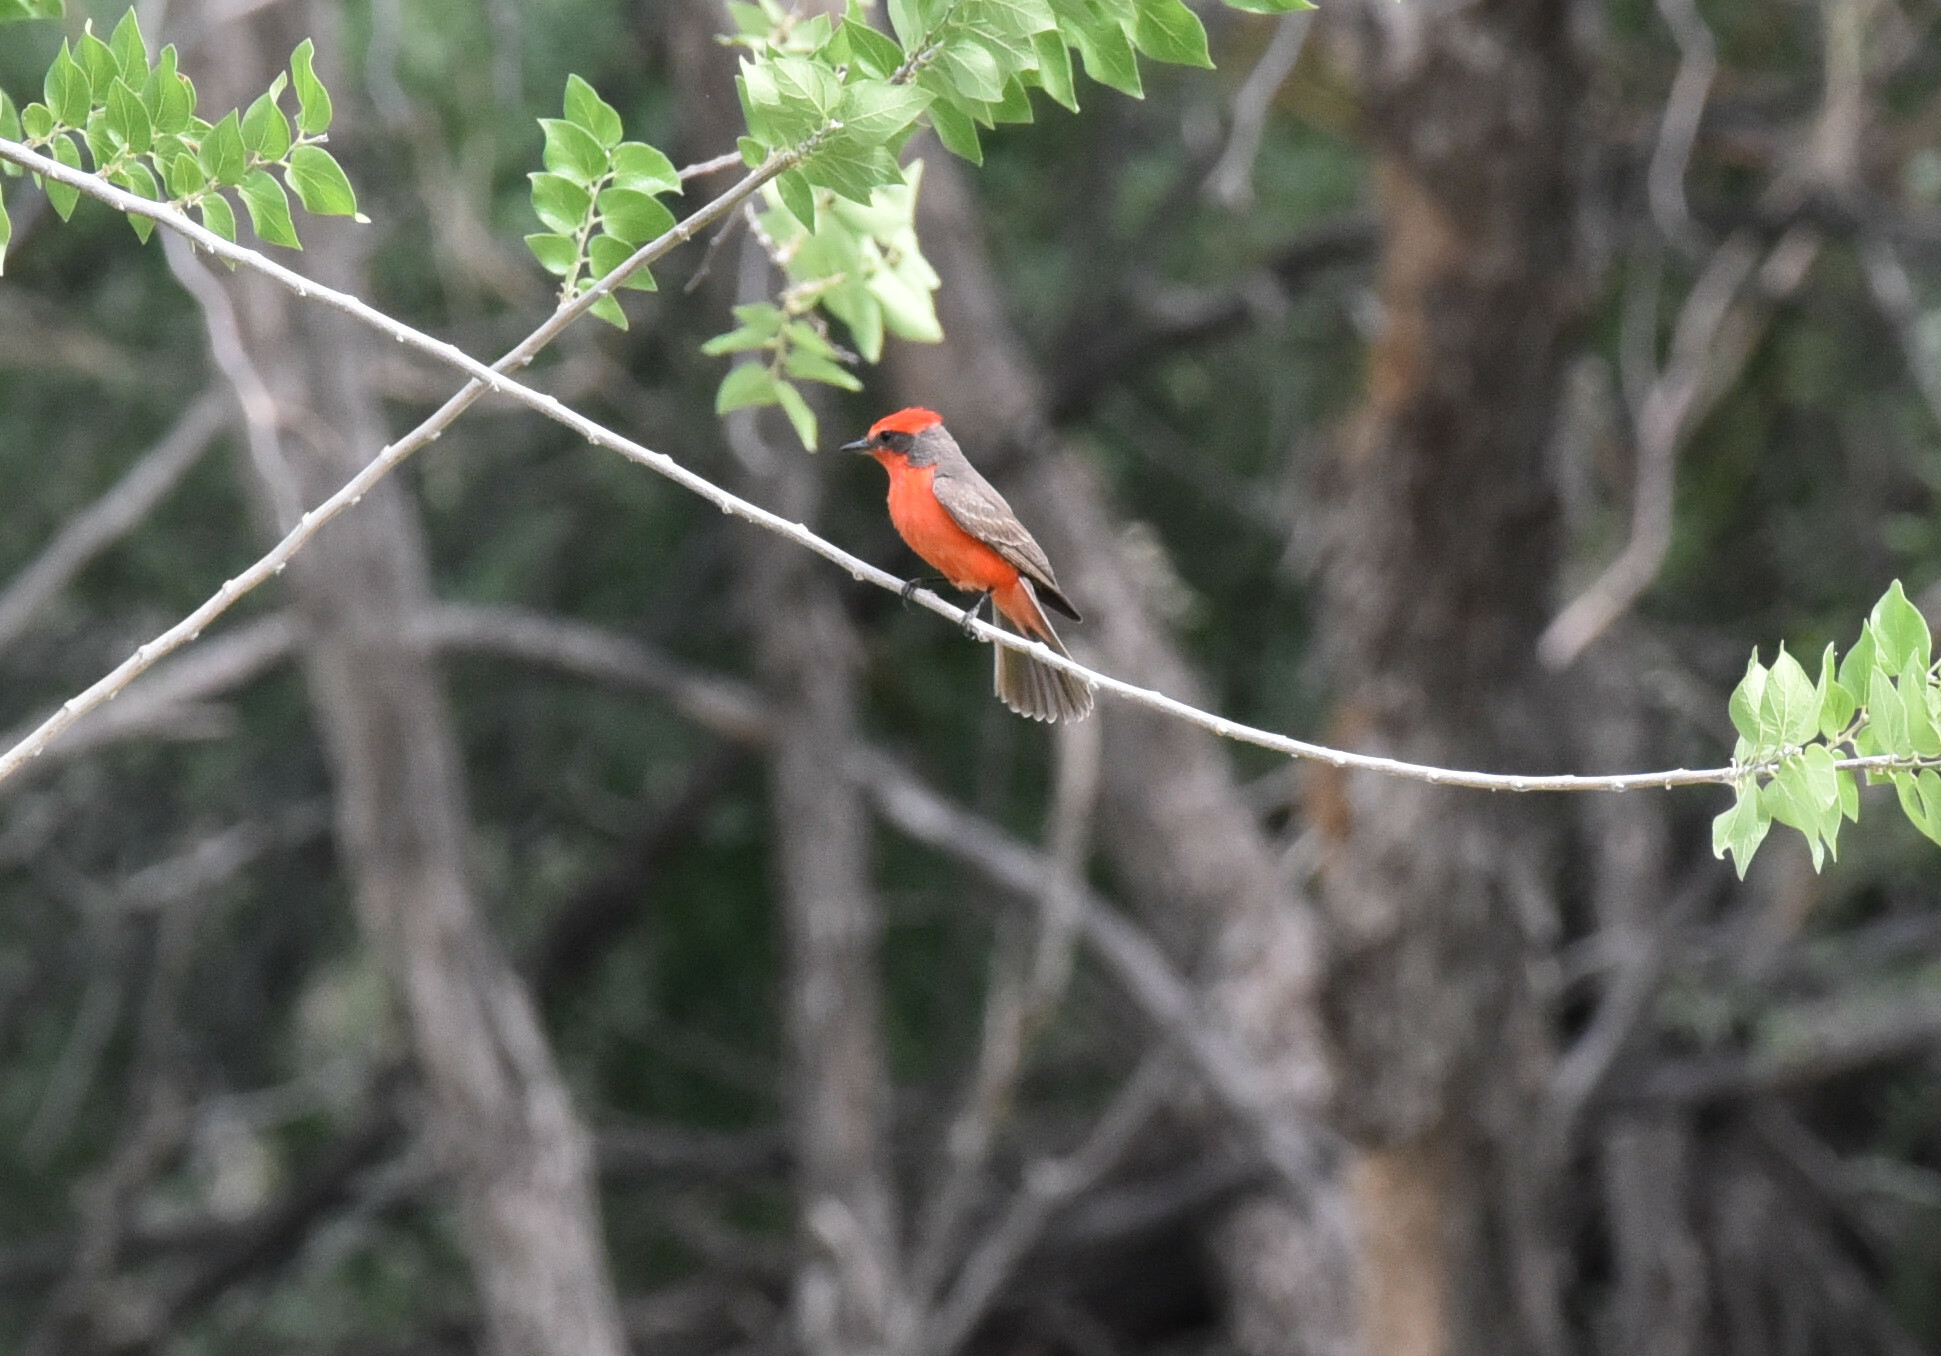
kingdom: Animalia
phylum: Chordata
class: Aves
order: Passeriformes
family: Tyrannidae
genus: Pyrocephalus
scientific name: Pyrocephalus rubinus
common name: Vermilion flycatcher
